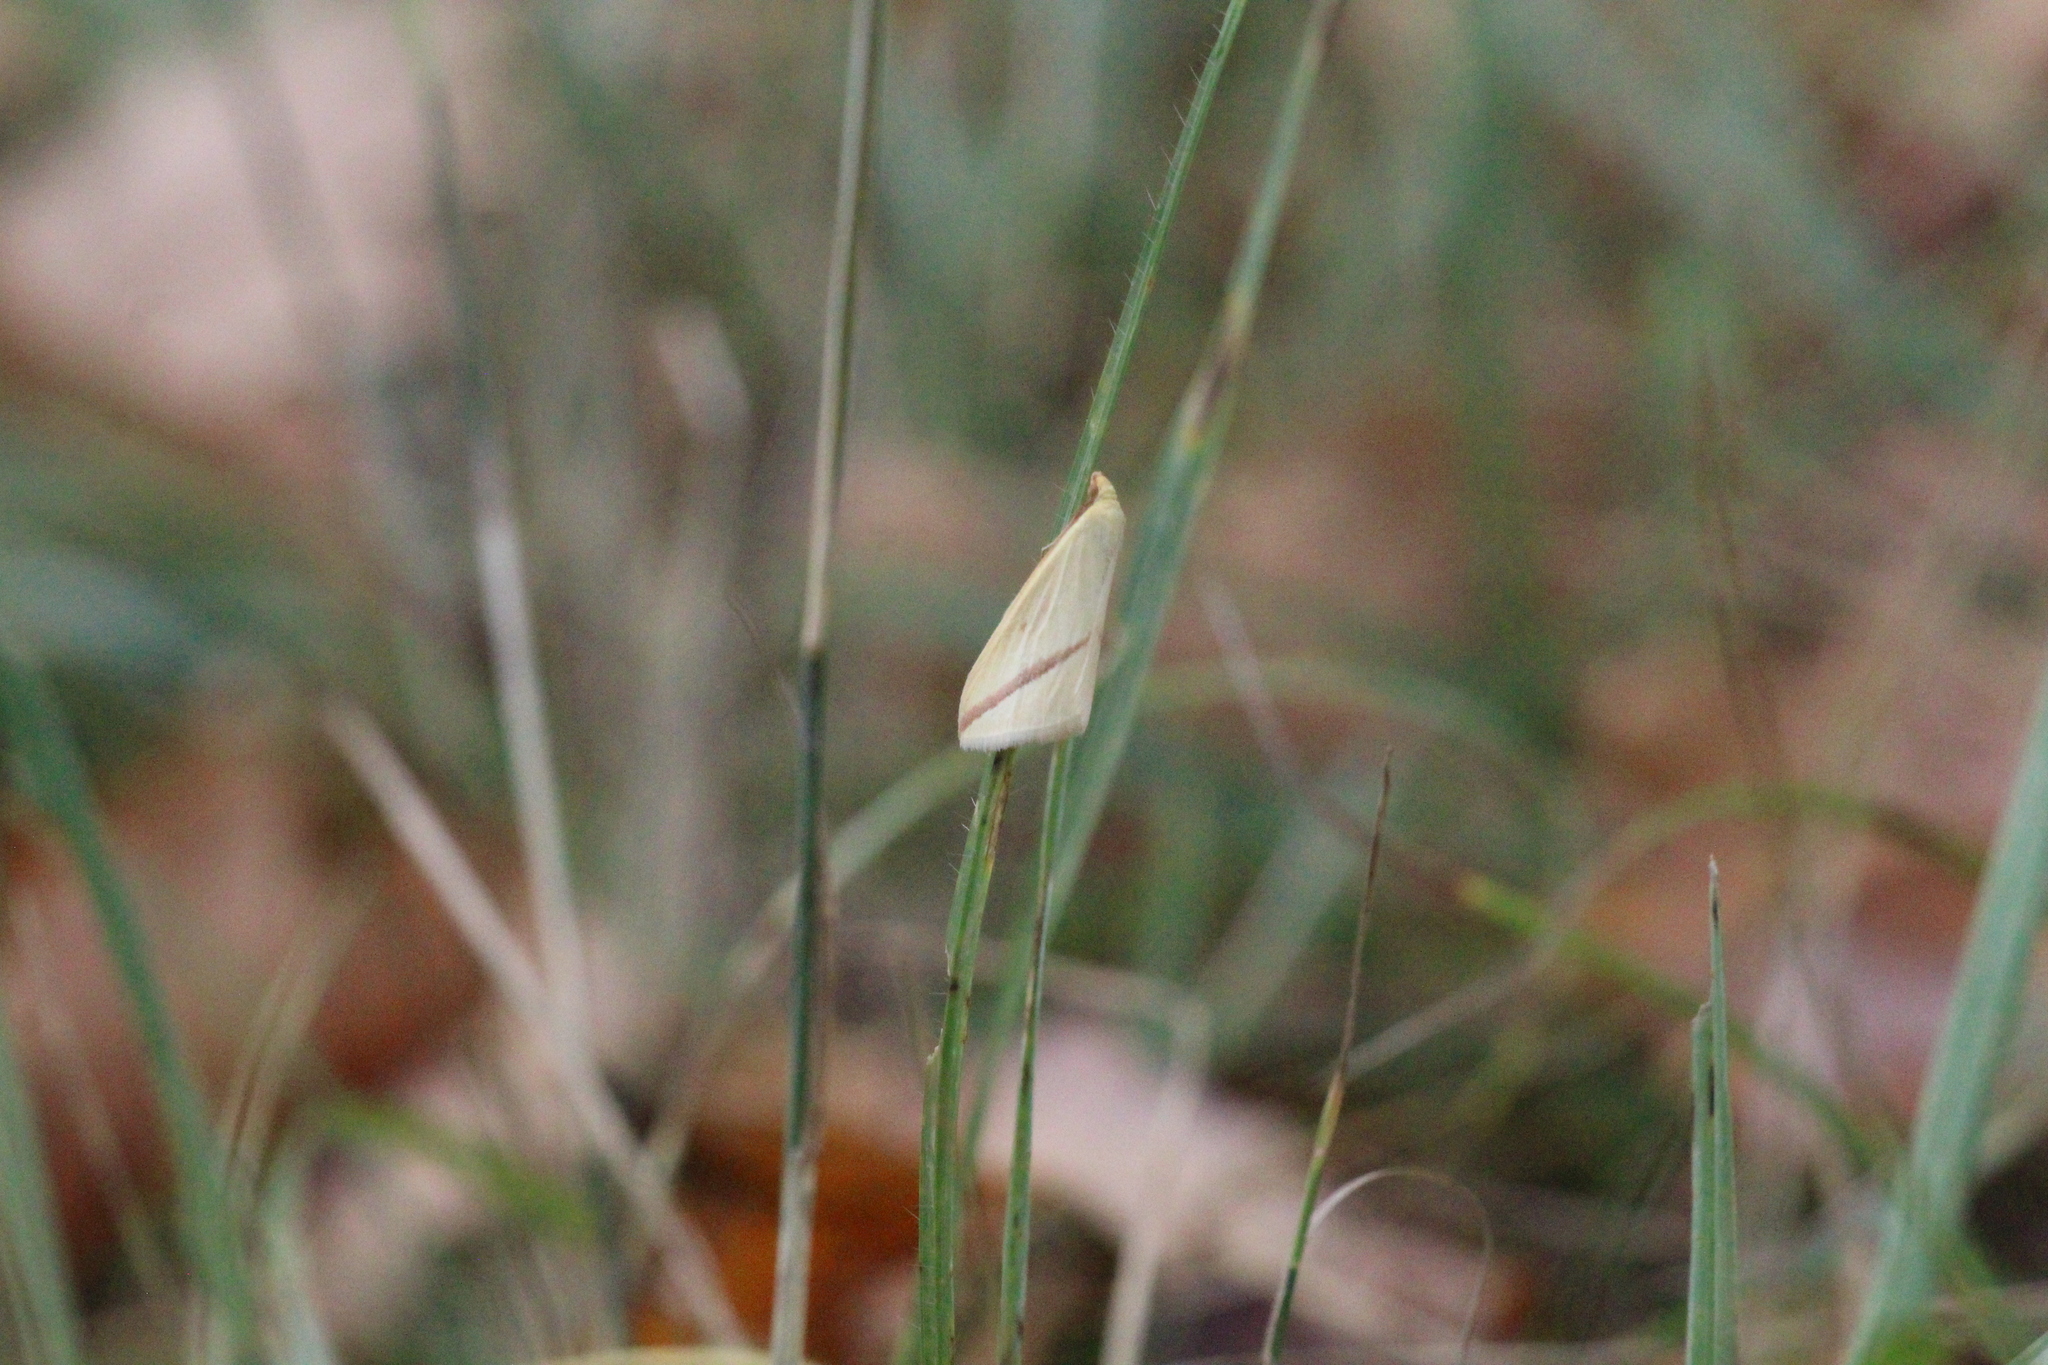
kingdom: Animalia
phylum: Arthropoda
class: Insecta
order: Lepidoptera
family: Geometridae
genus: Rhodometra
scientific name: Rhodometra sacraria
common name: Vestal
